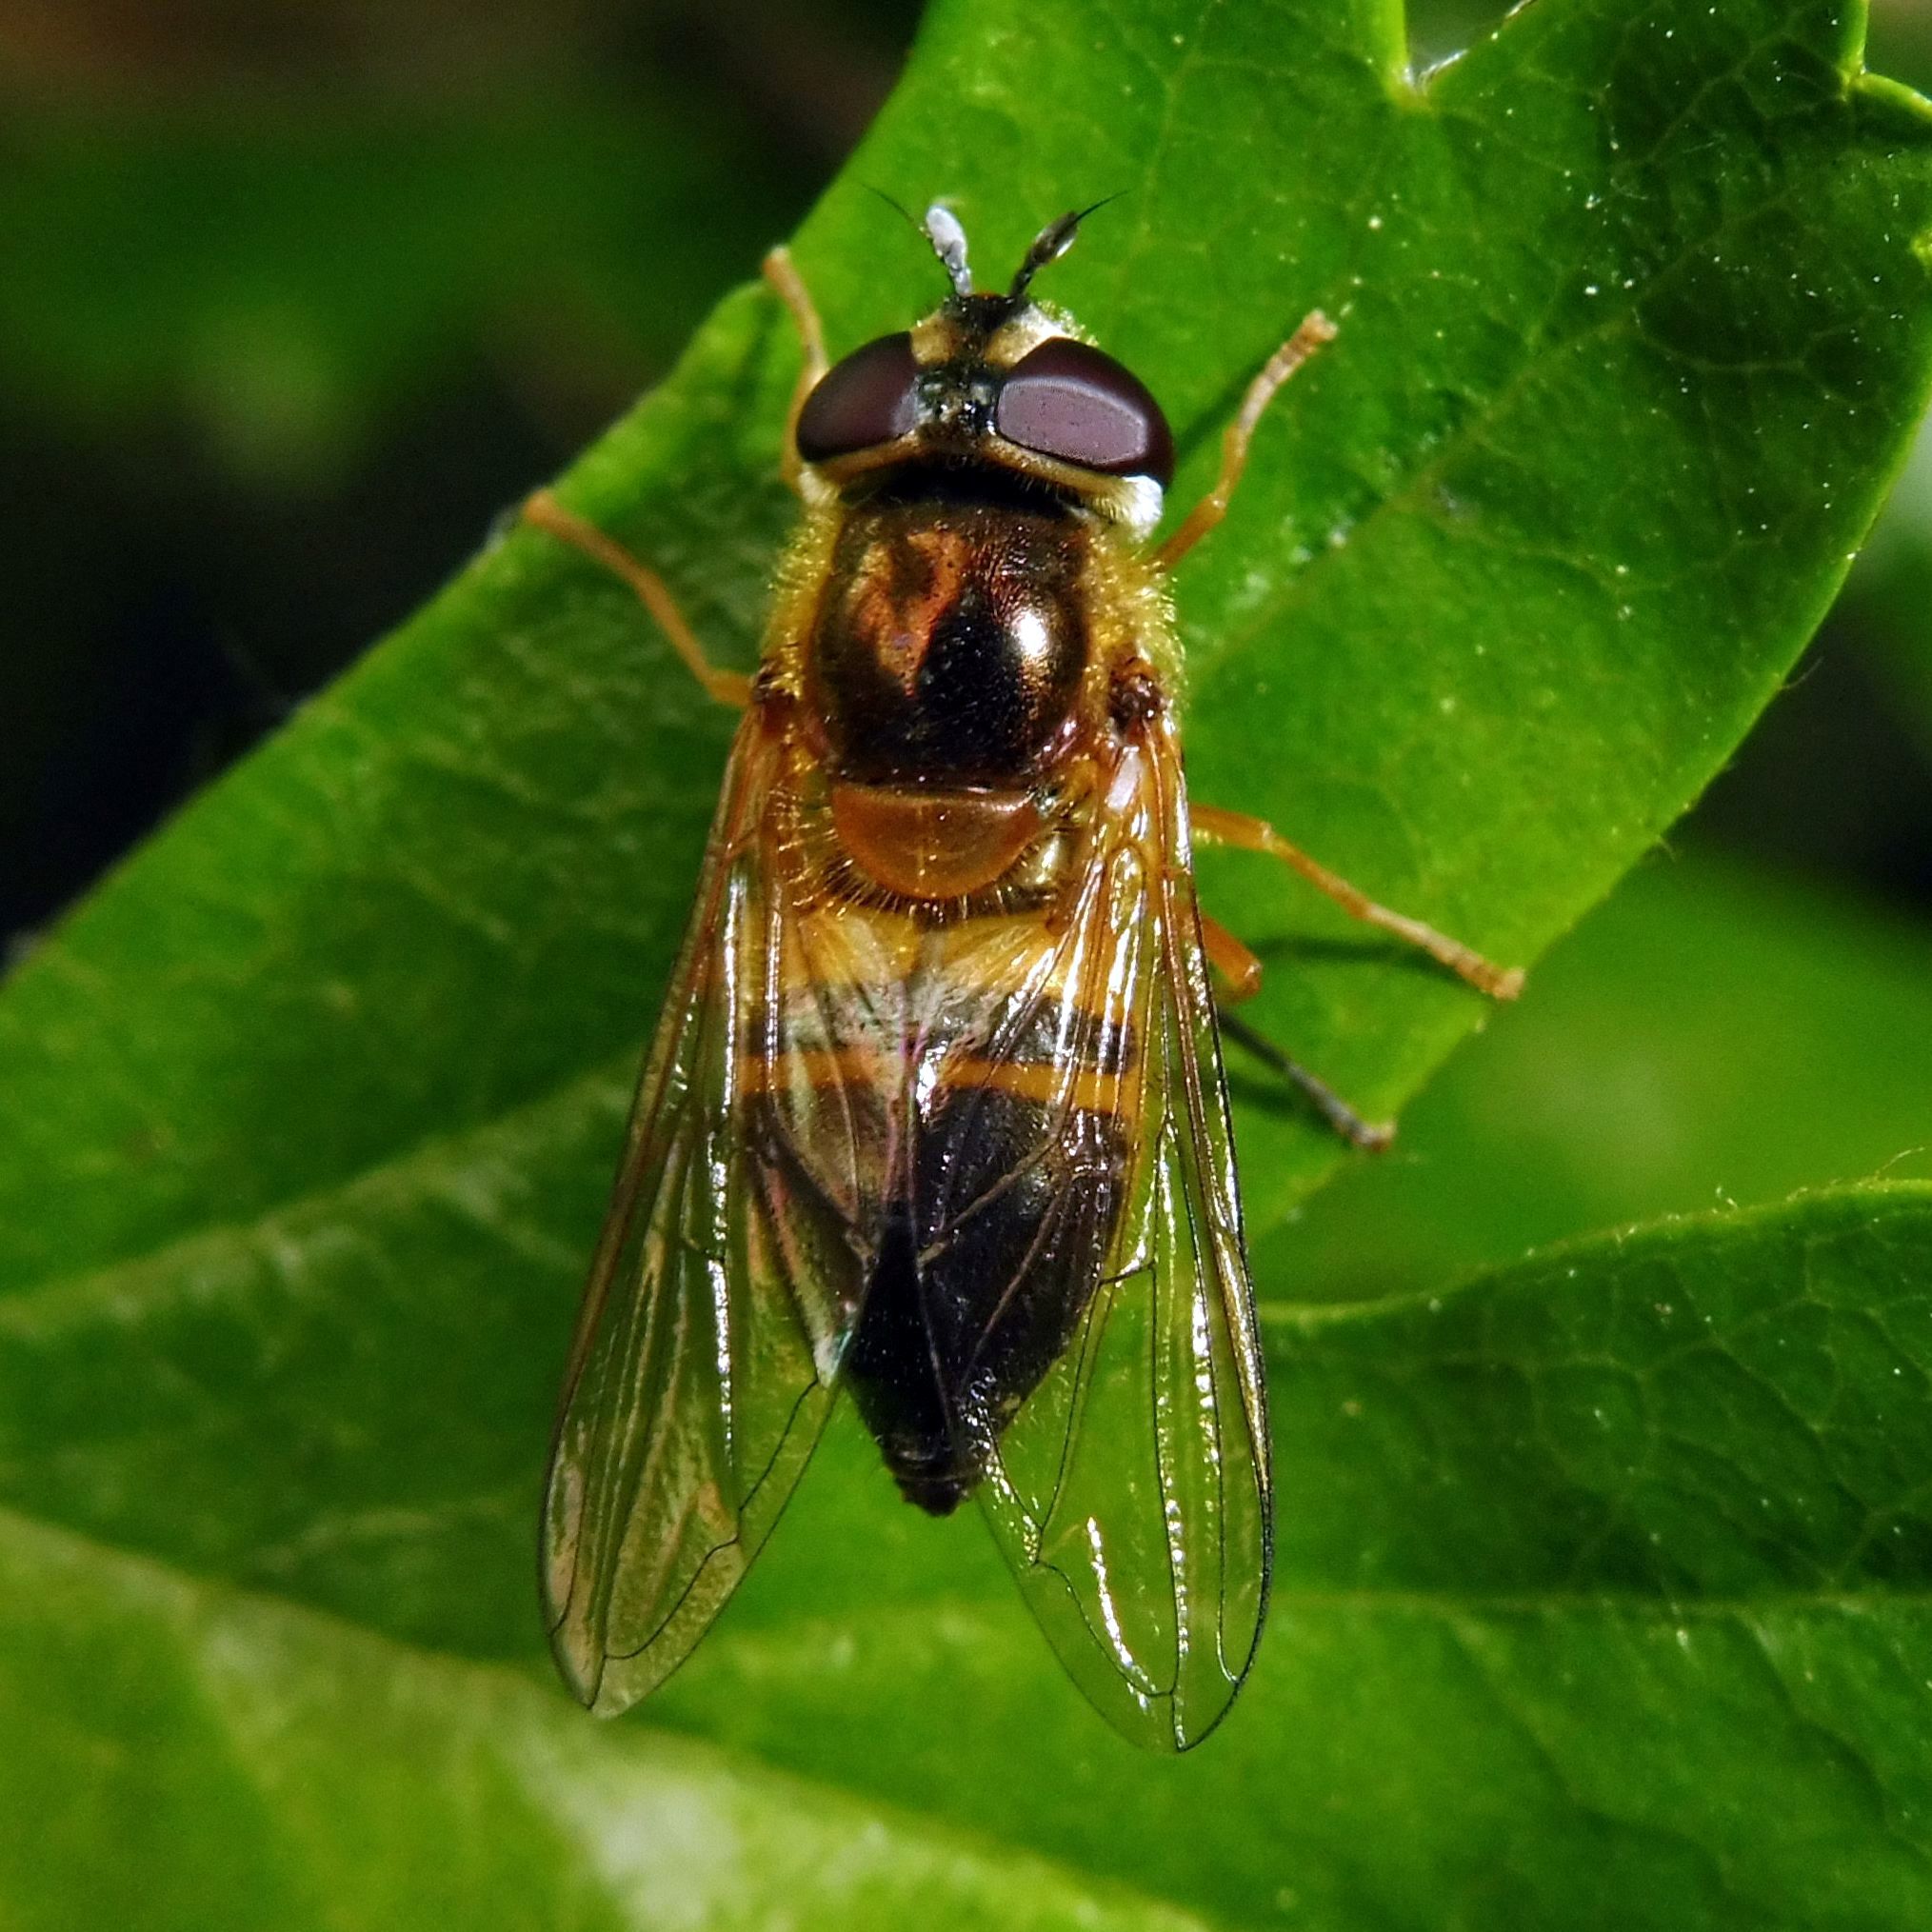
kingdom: Animalia
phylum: Arthropoda
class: Insecta
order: Diptera
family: Syrphidae
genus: Epistrophe
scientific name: Epistrophe eligans
